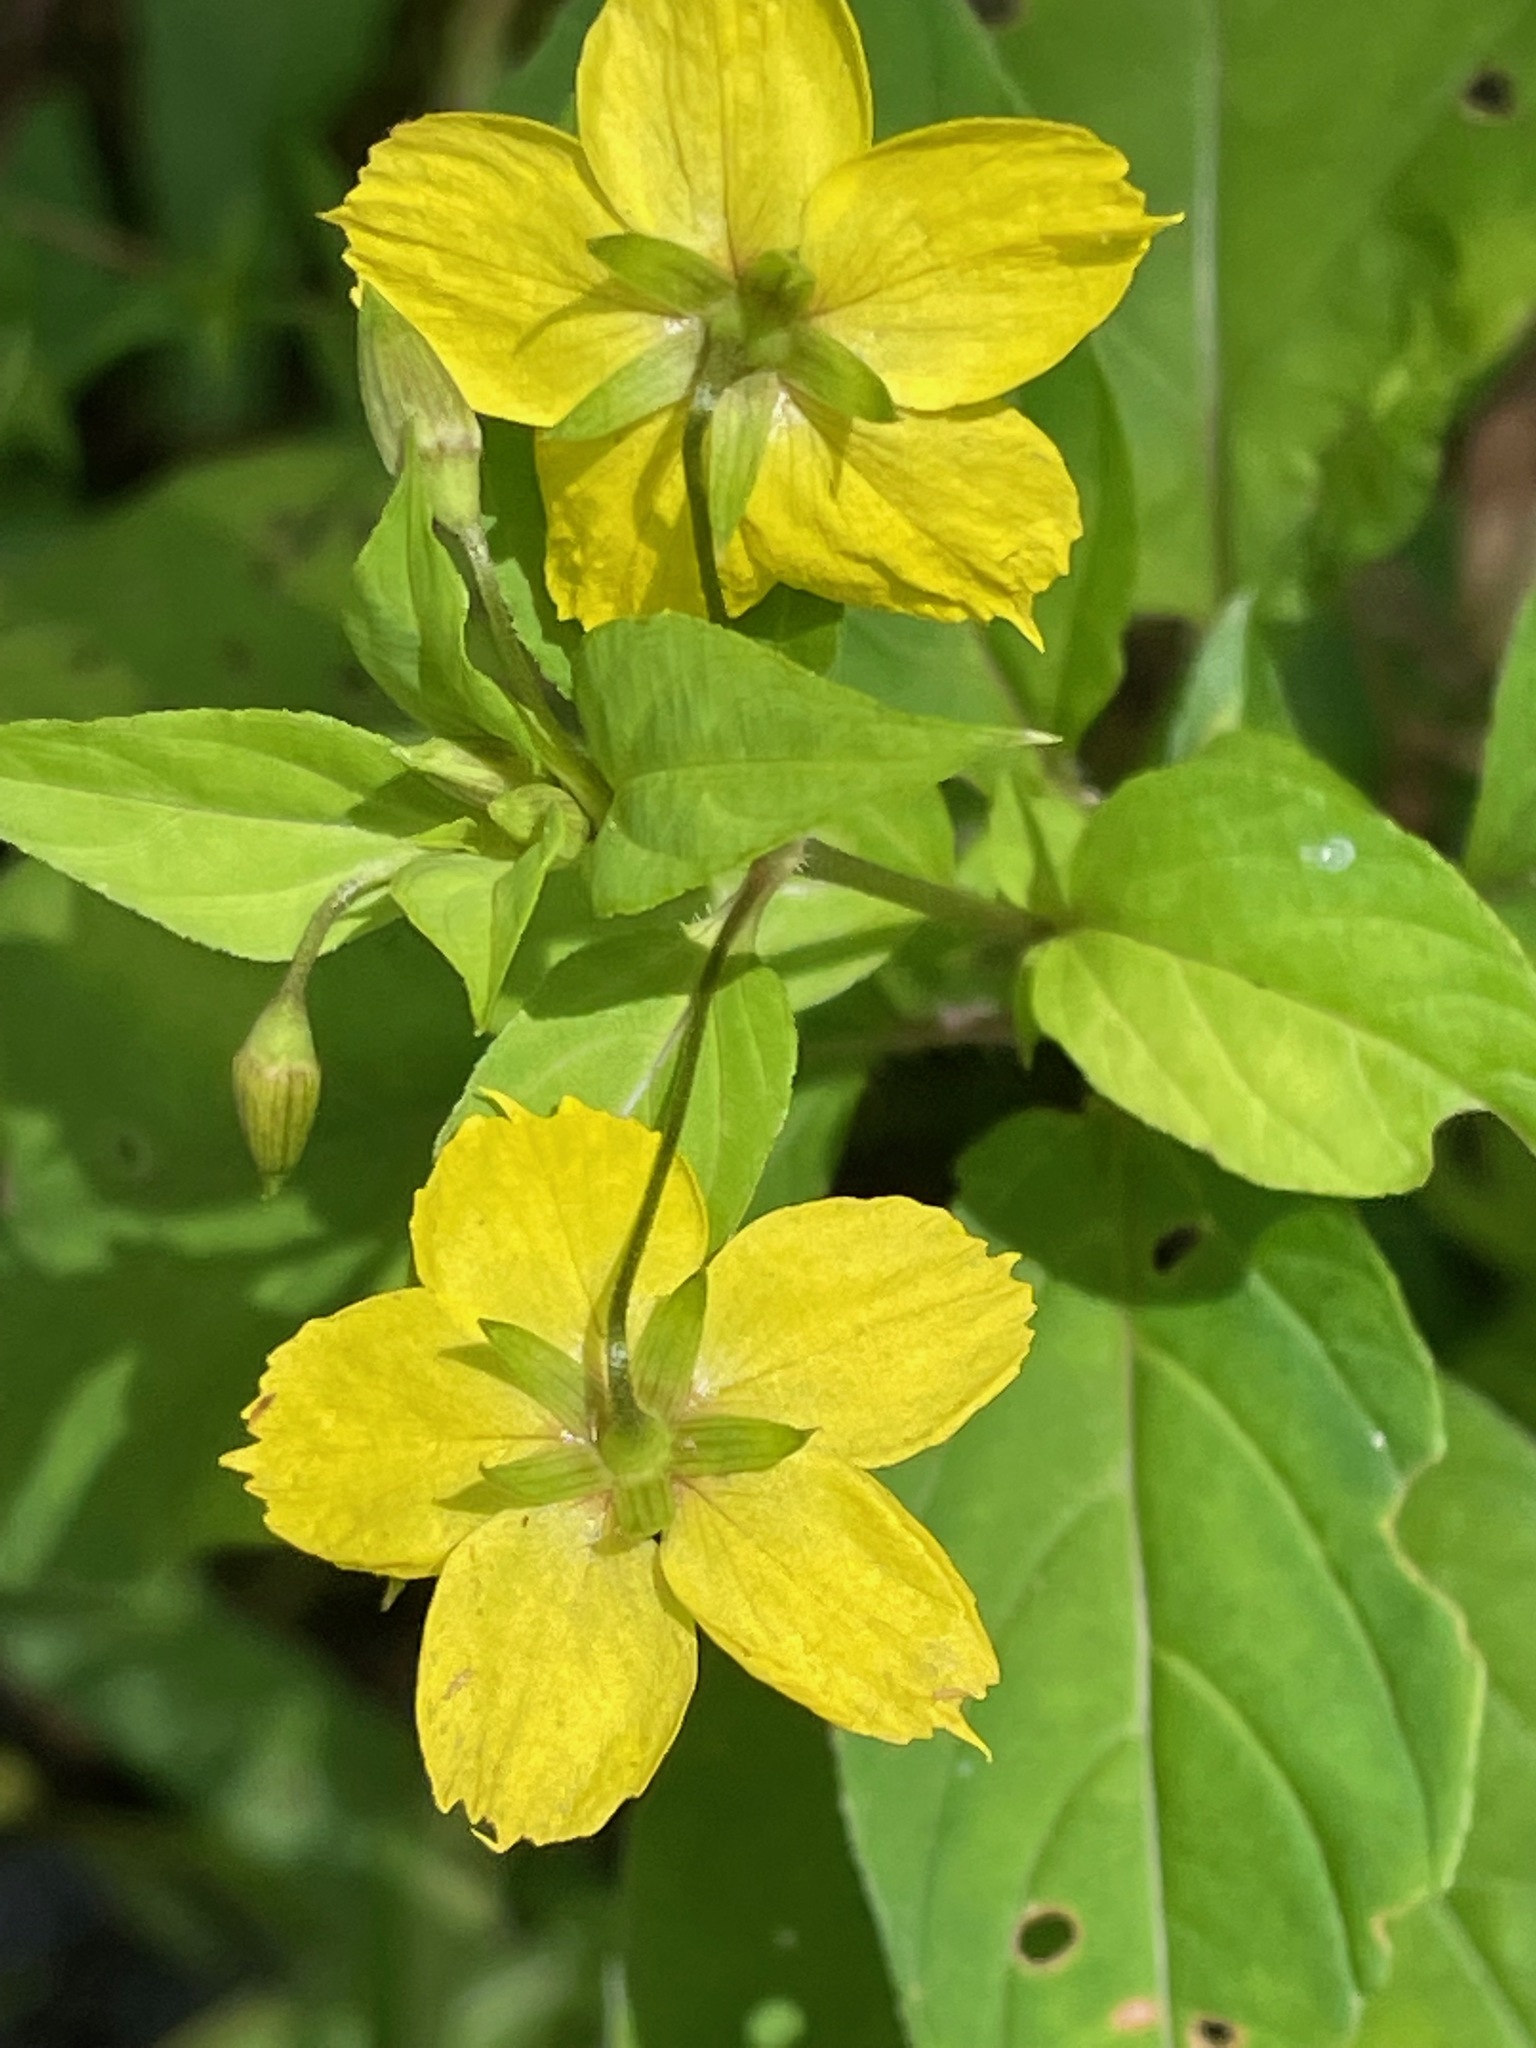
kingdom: Plantae
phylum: Tracheophyta
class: Magnoliopsida
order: Ericales
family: Primulaceae
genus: Lysimachia
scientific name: Lysimachia ciliata
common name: Fringed loosestrife
